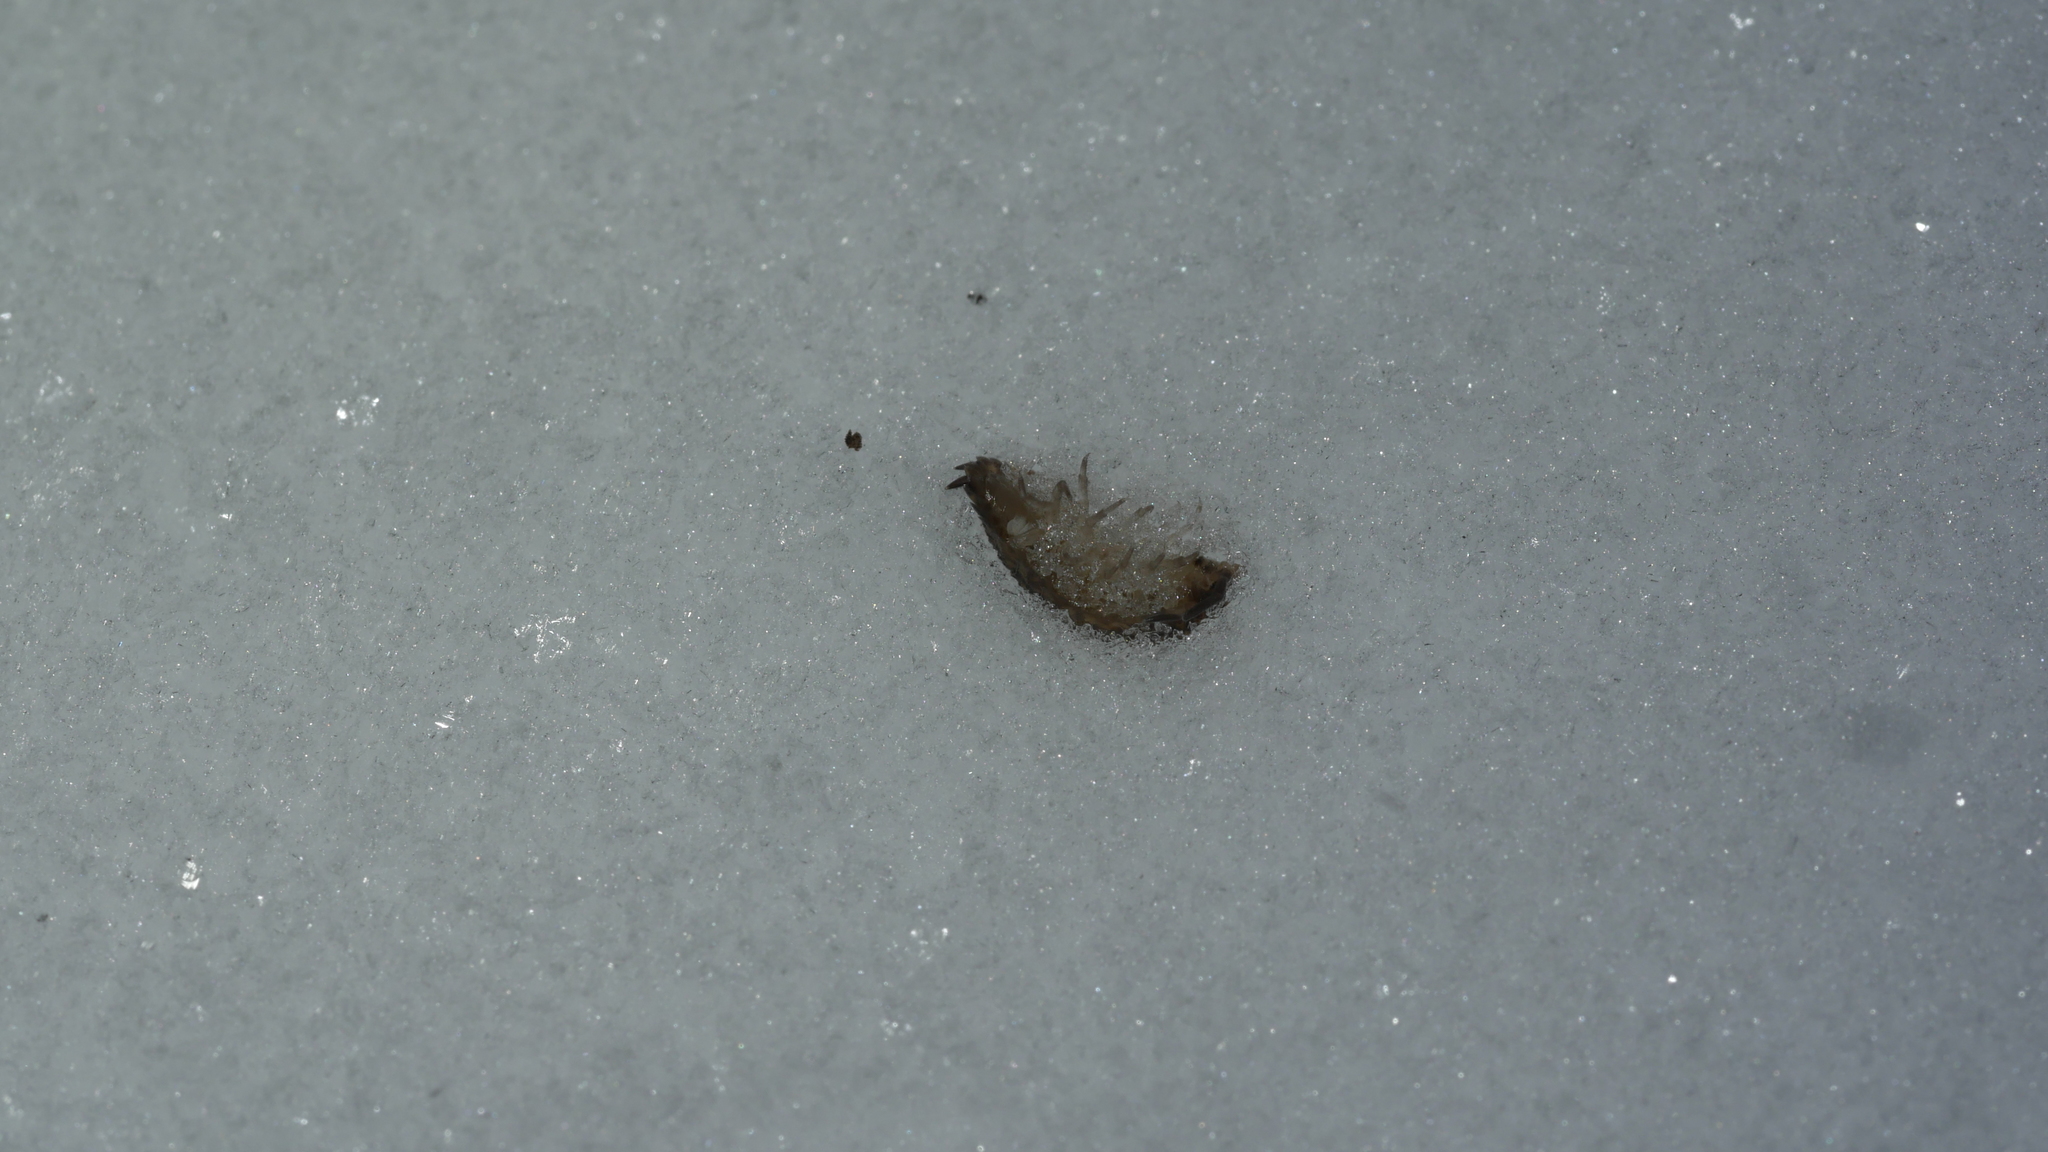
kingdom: Animalia
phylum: Arthropoda
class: Malacostraca
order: Isopoda
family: Porcellionidae
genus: Porcellio
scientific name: Porcellio scaber
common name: Common rough woodlouse
